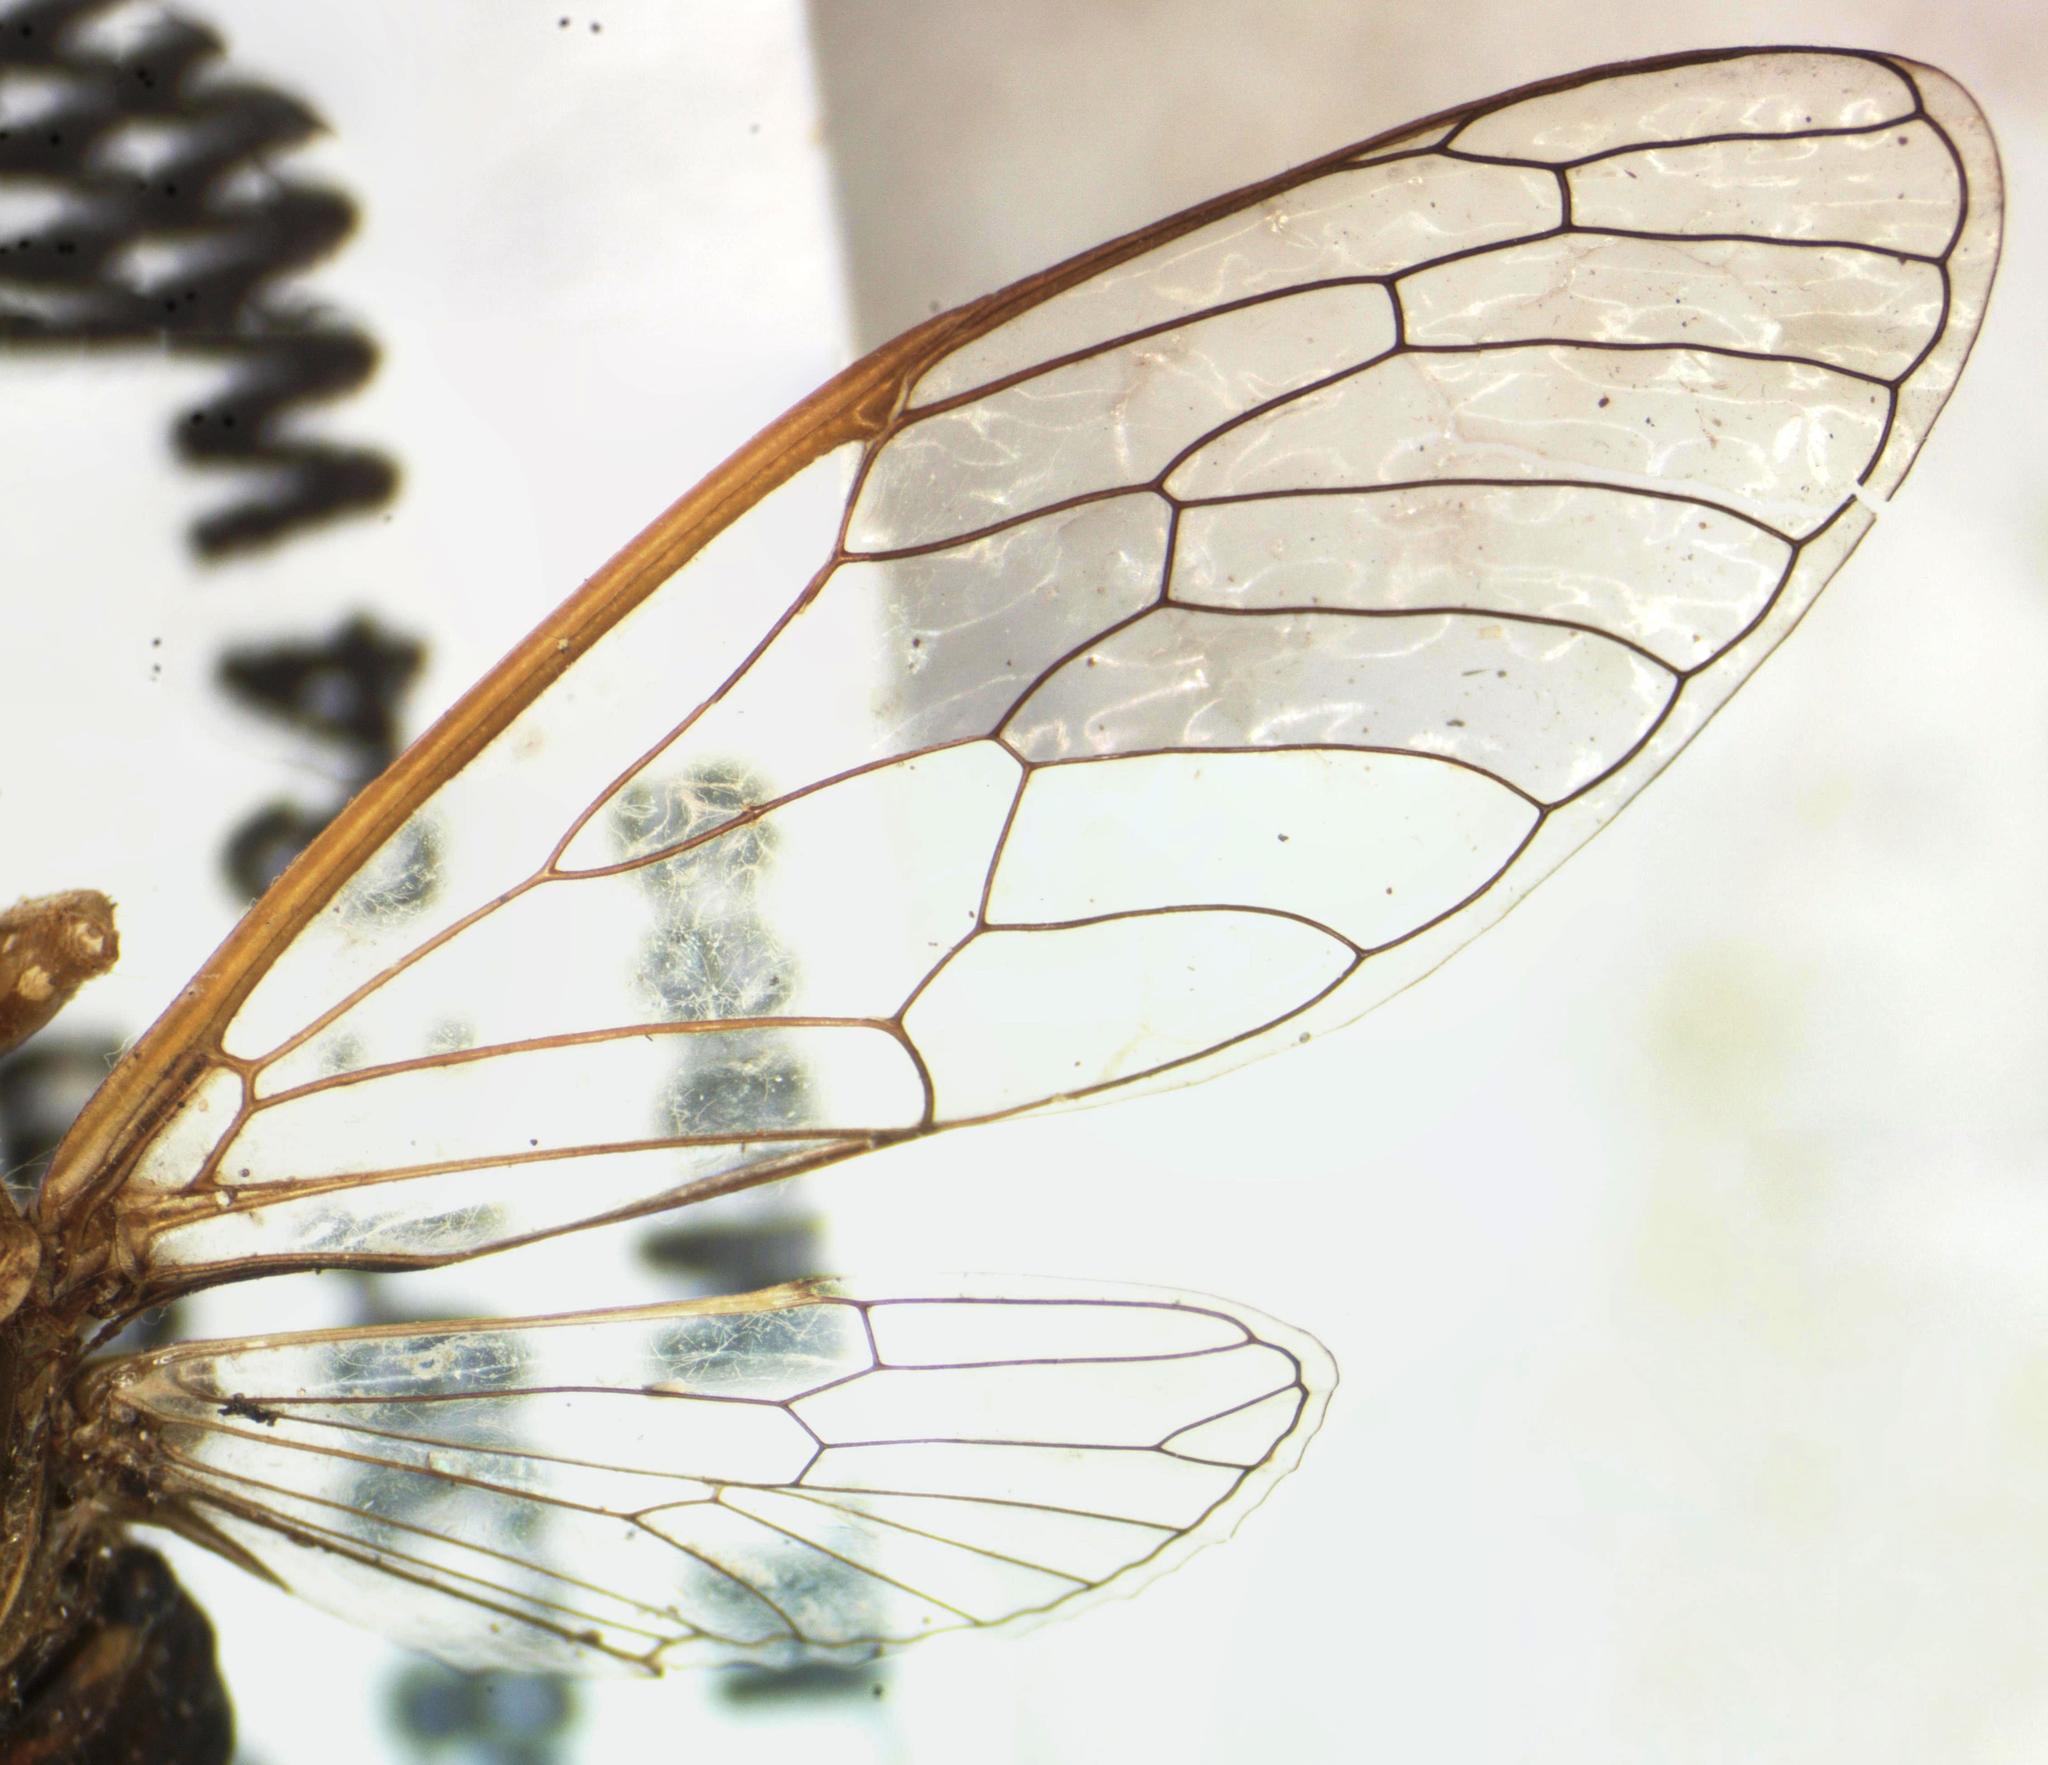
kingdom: Animalia
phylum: Arthropoda
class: Insecta
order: Hemiptera
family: Cicadidae
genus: Herrera
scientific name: Herrera ancilla
